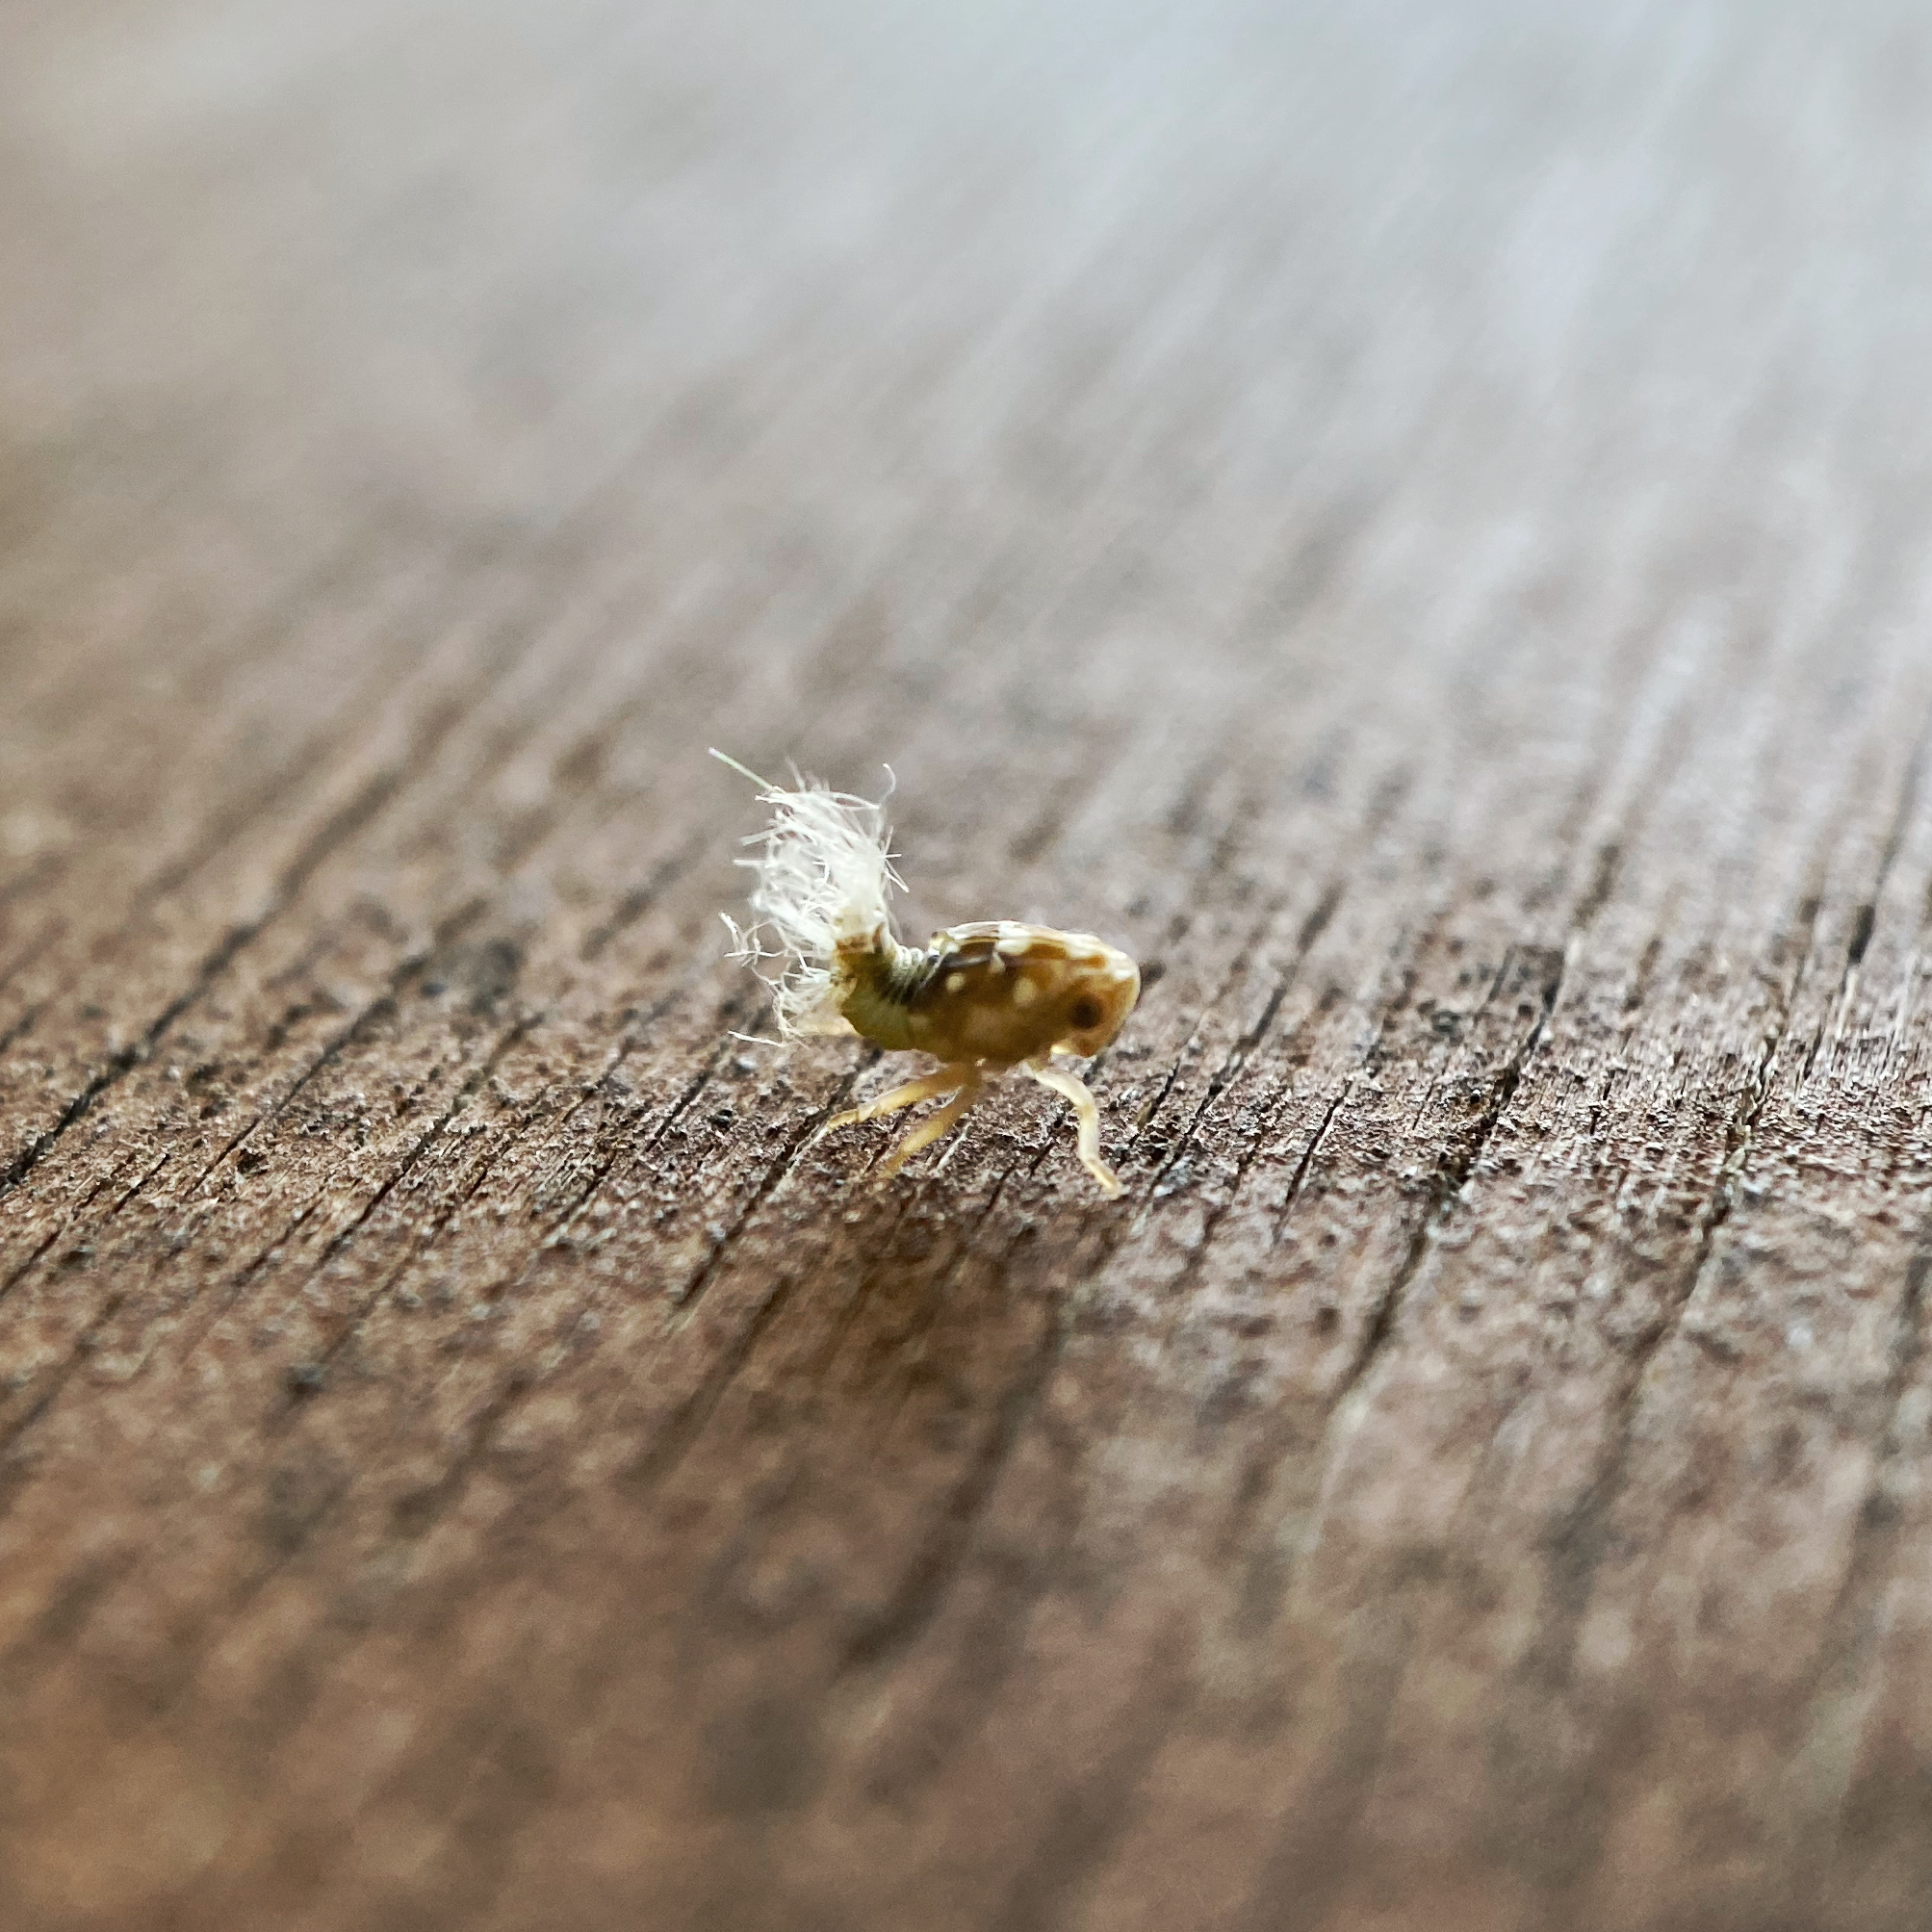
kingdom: Animalia
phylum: Arthropoda
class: Insecta
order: Hemiptera
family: Ricaniidae
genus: Scolypopa
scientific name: Scolypopa australis
